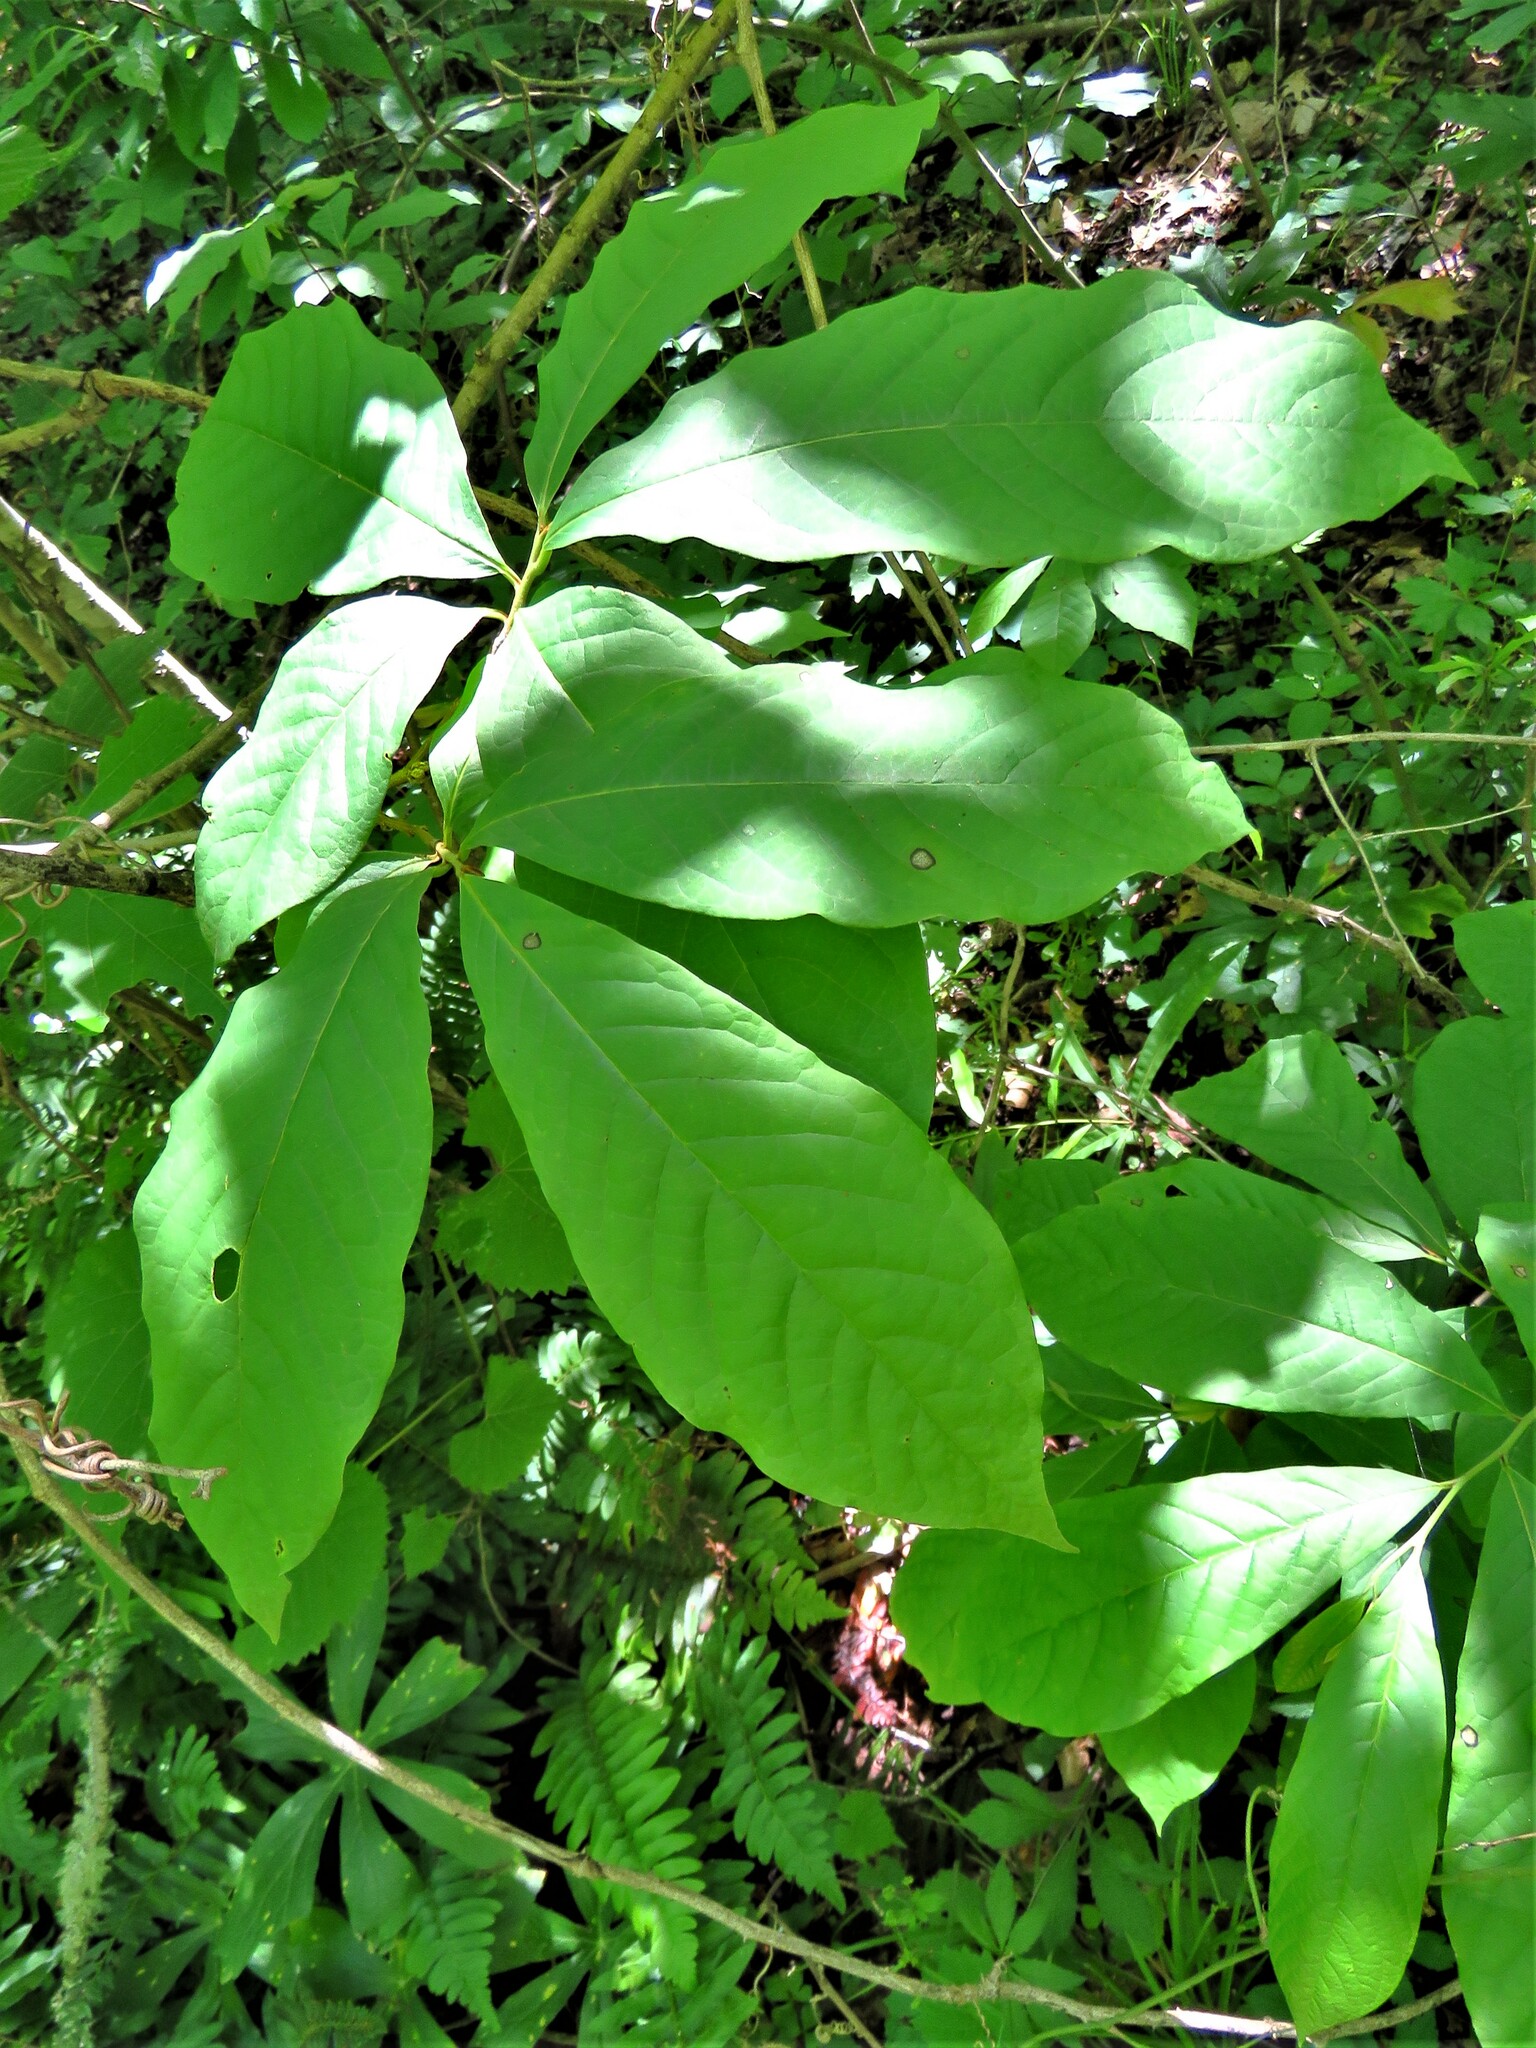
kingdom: Plantae
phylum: Tracheophyta
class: Magnoliopsida
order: Magnoliales
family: Annonaceae
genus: Asimina
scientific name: Asimina triloba
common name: Dog-banana
